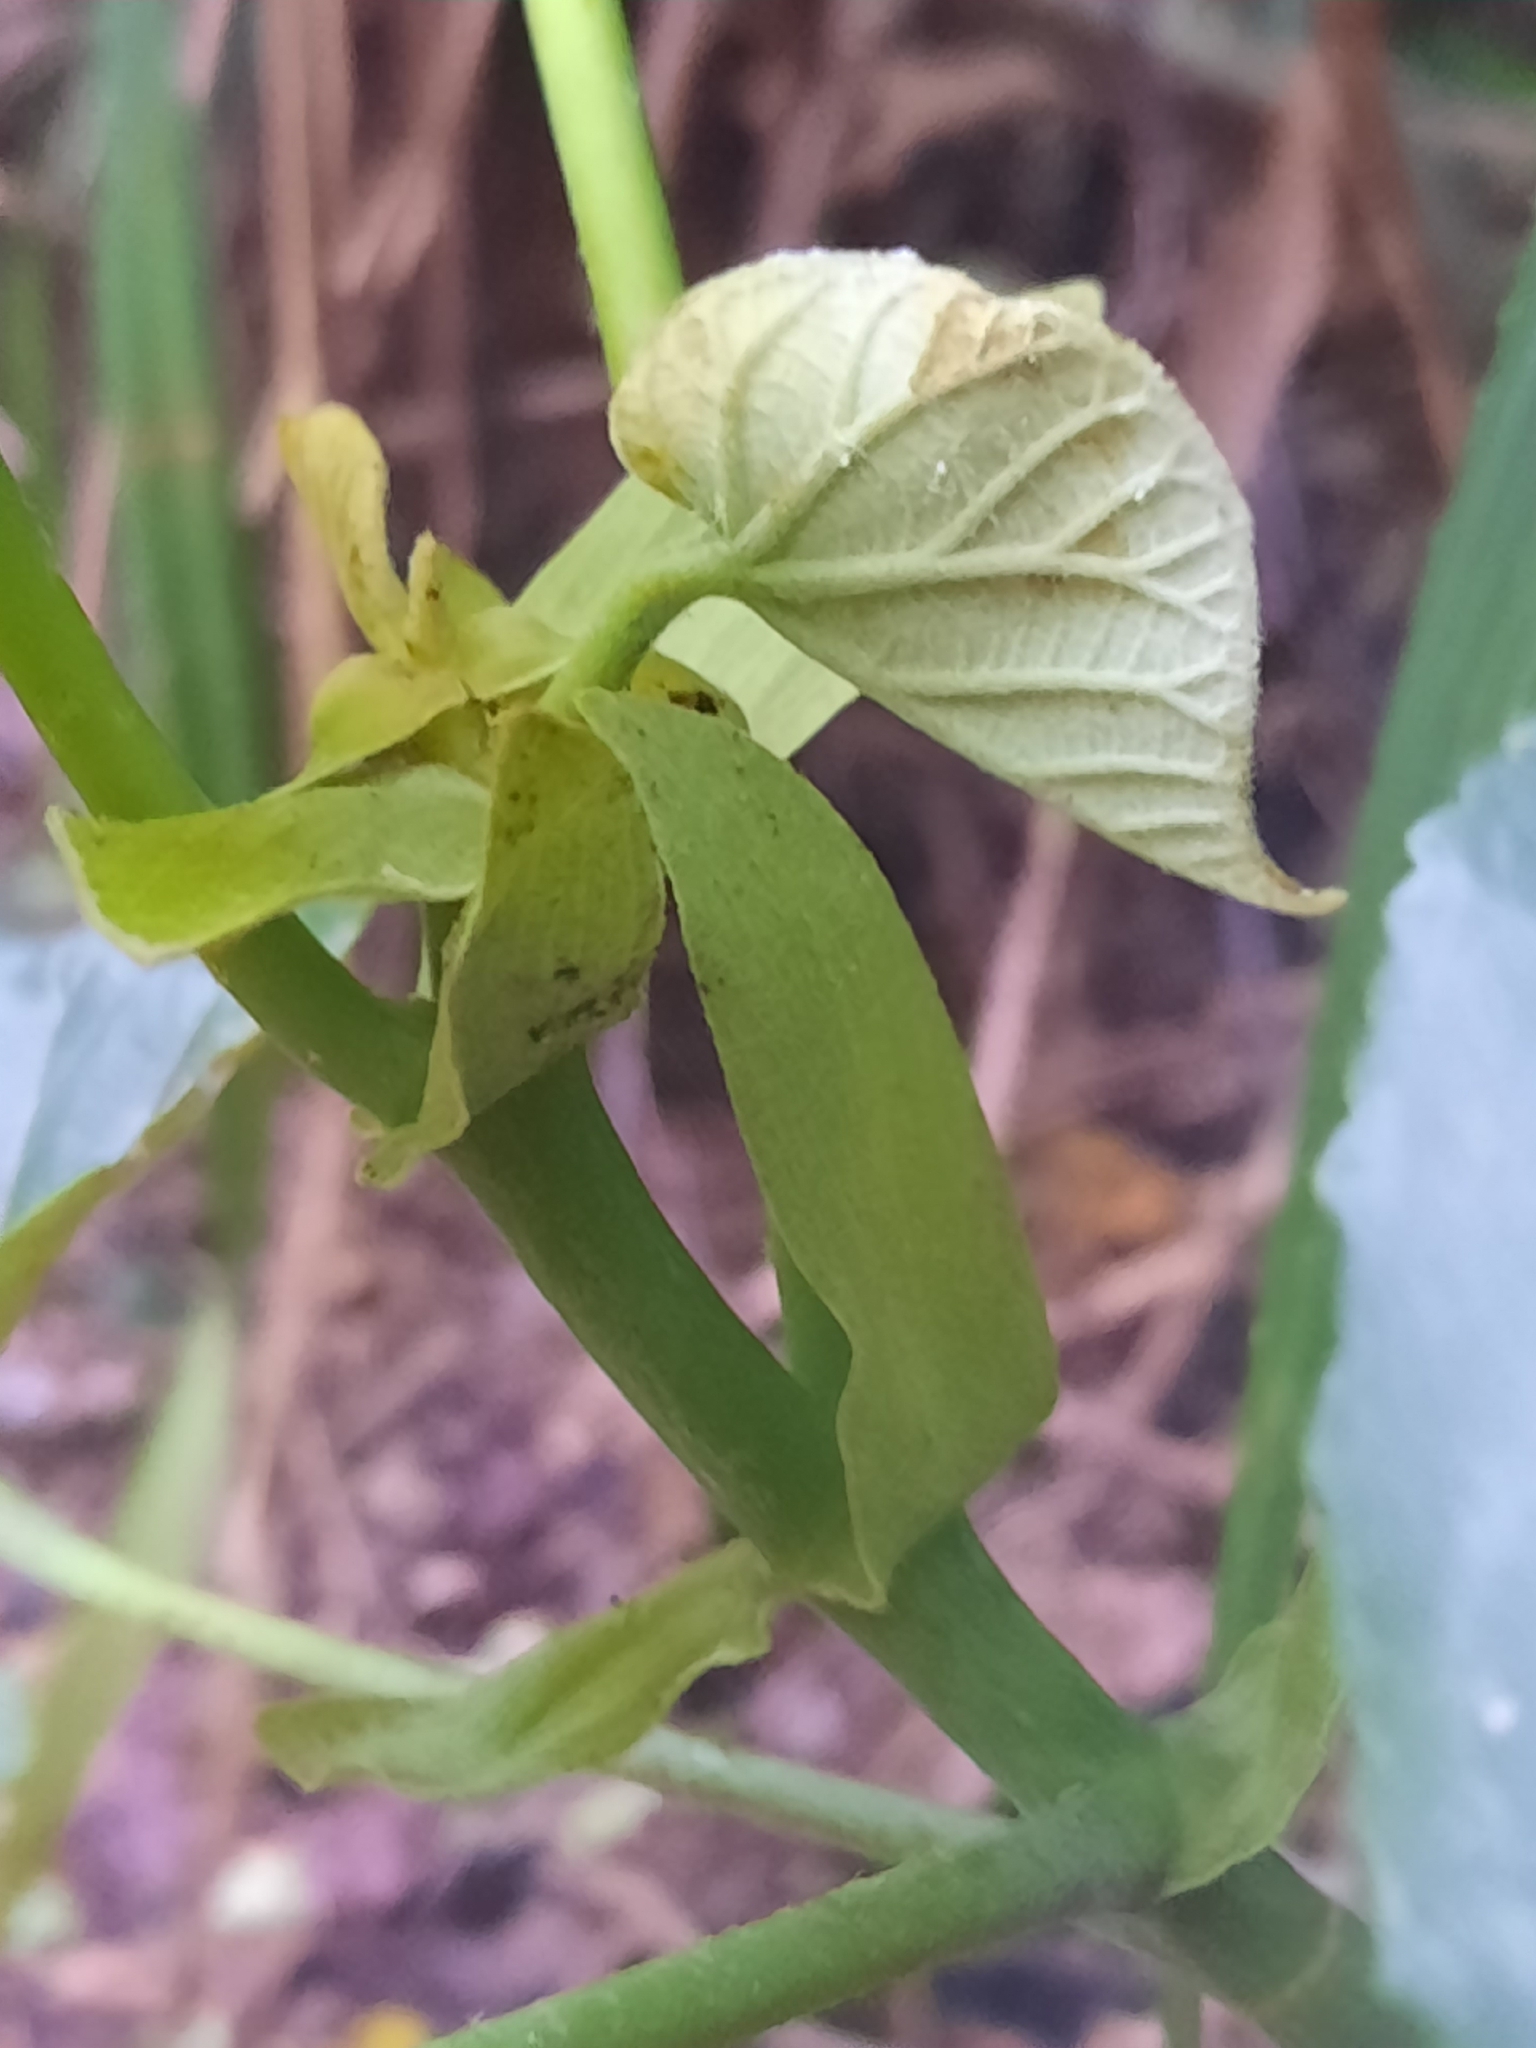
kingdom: Plantae
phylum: Tracheophyta
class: Magnoliopsida
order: Malvales
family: Malvaceae
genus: Talipariti
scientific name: Talipariti tiliaceum
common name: Sea hibiscus
